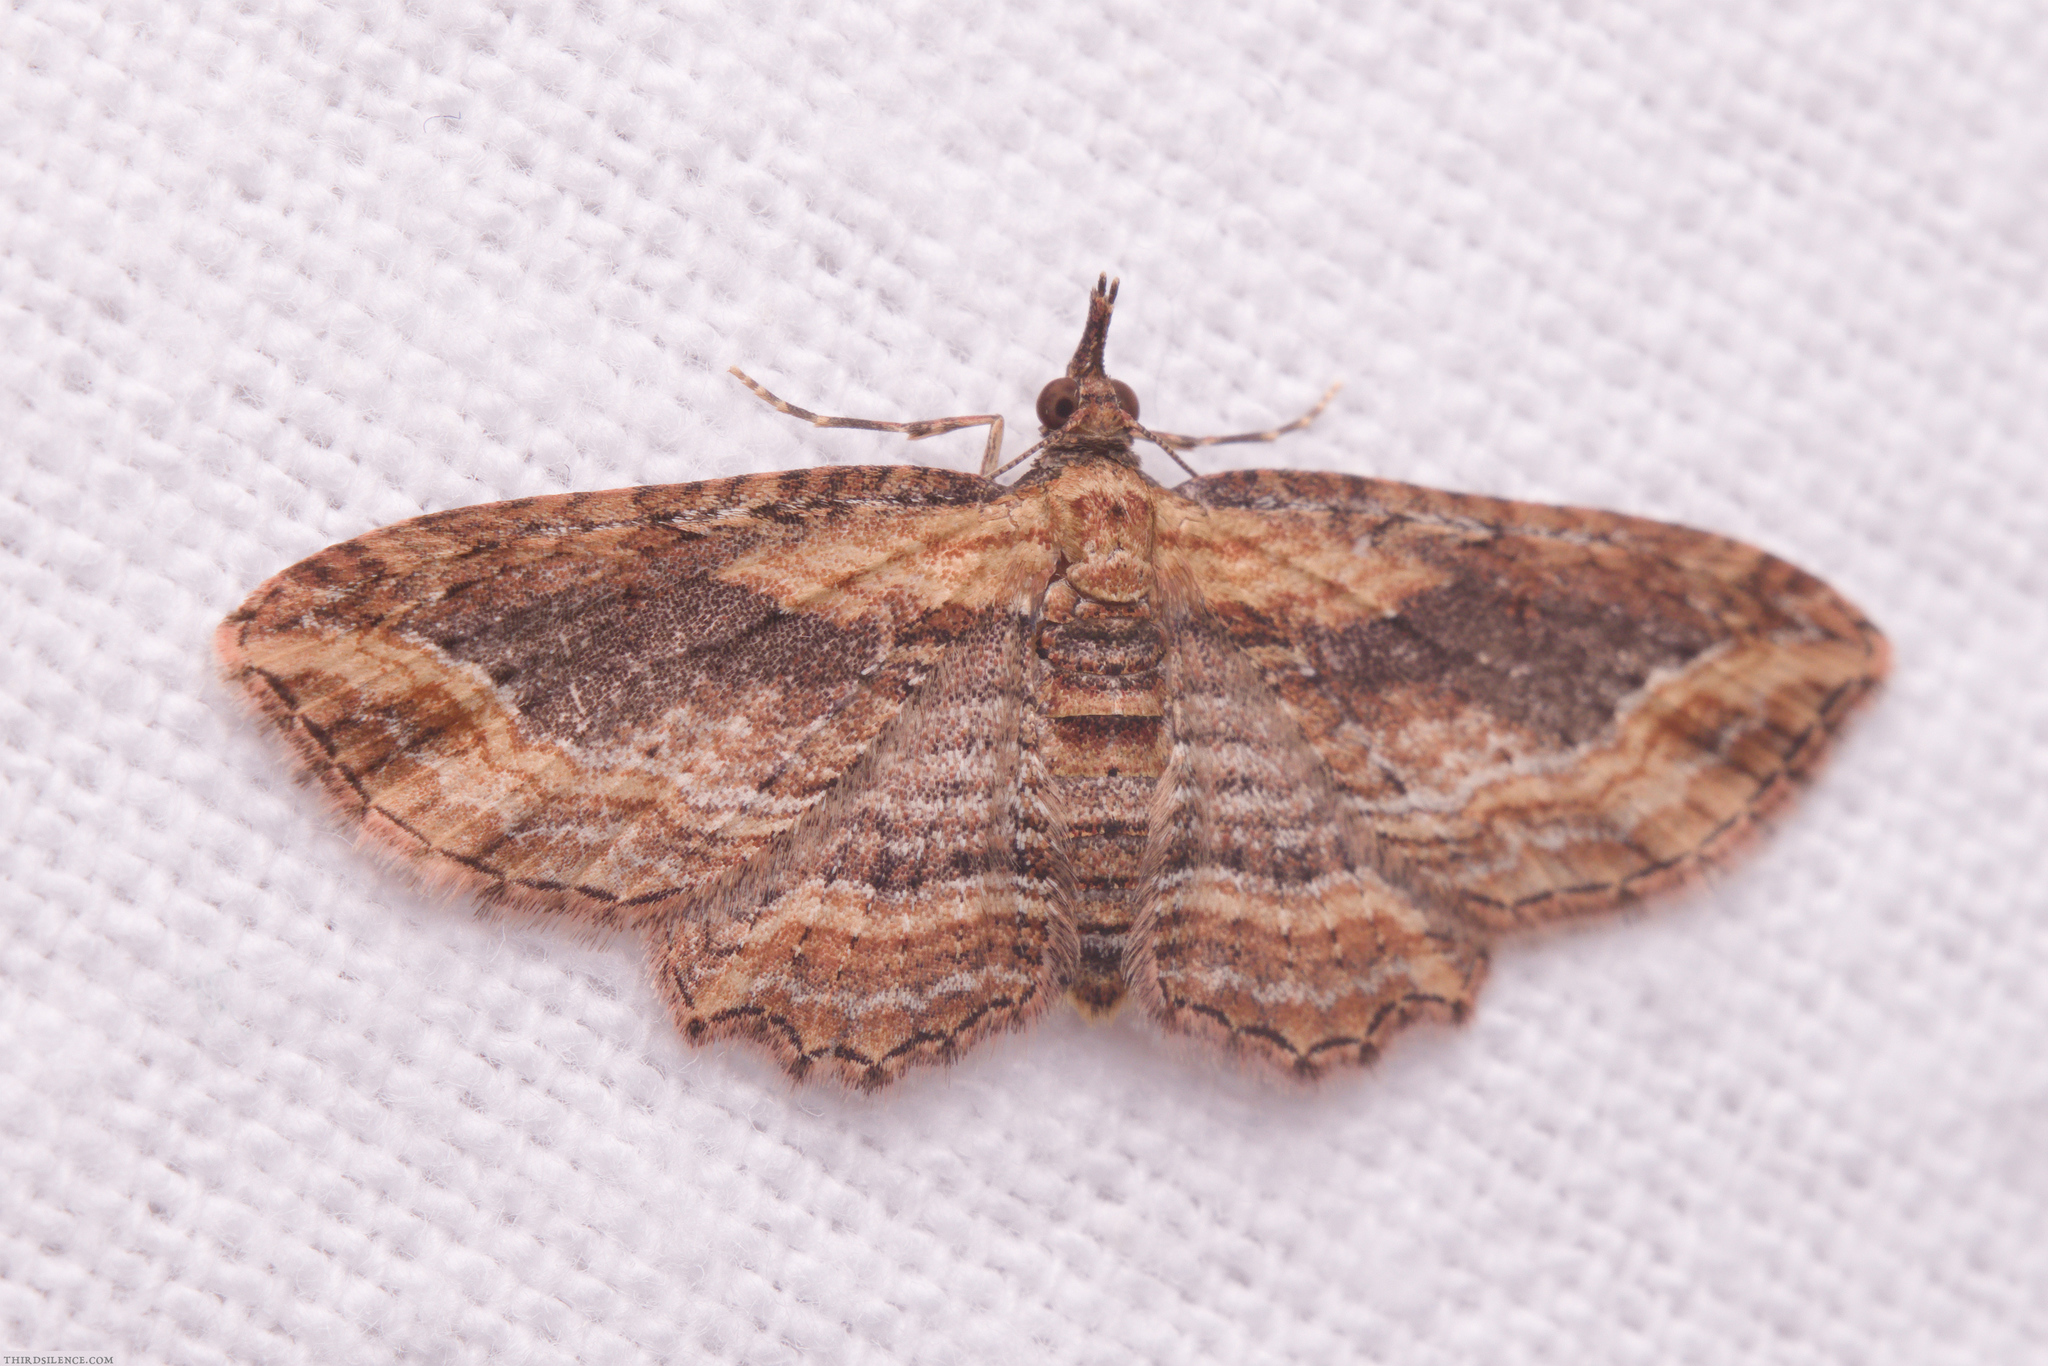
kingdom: Animalia
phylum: Arthropoda
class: Insecta
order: Lepidoptera
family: Geometridae
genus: Chloroclystis
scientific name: Chloroclystis filata
